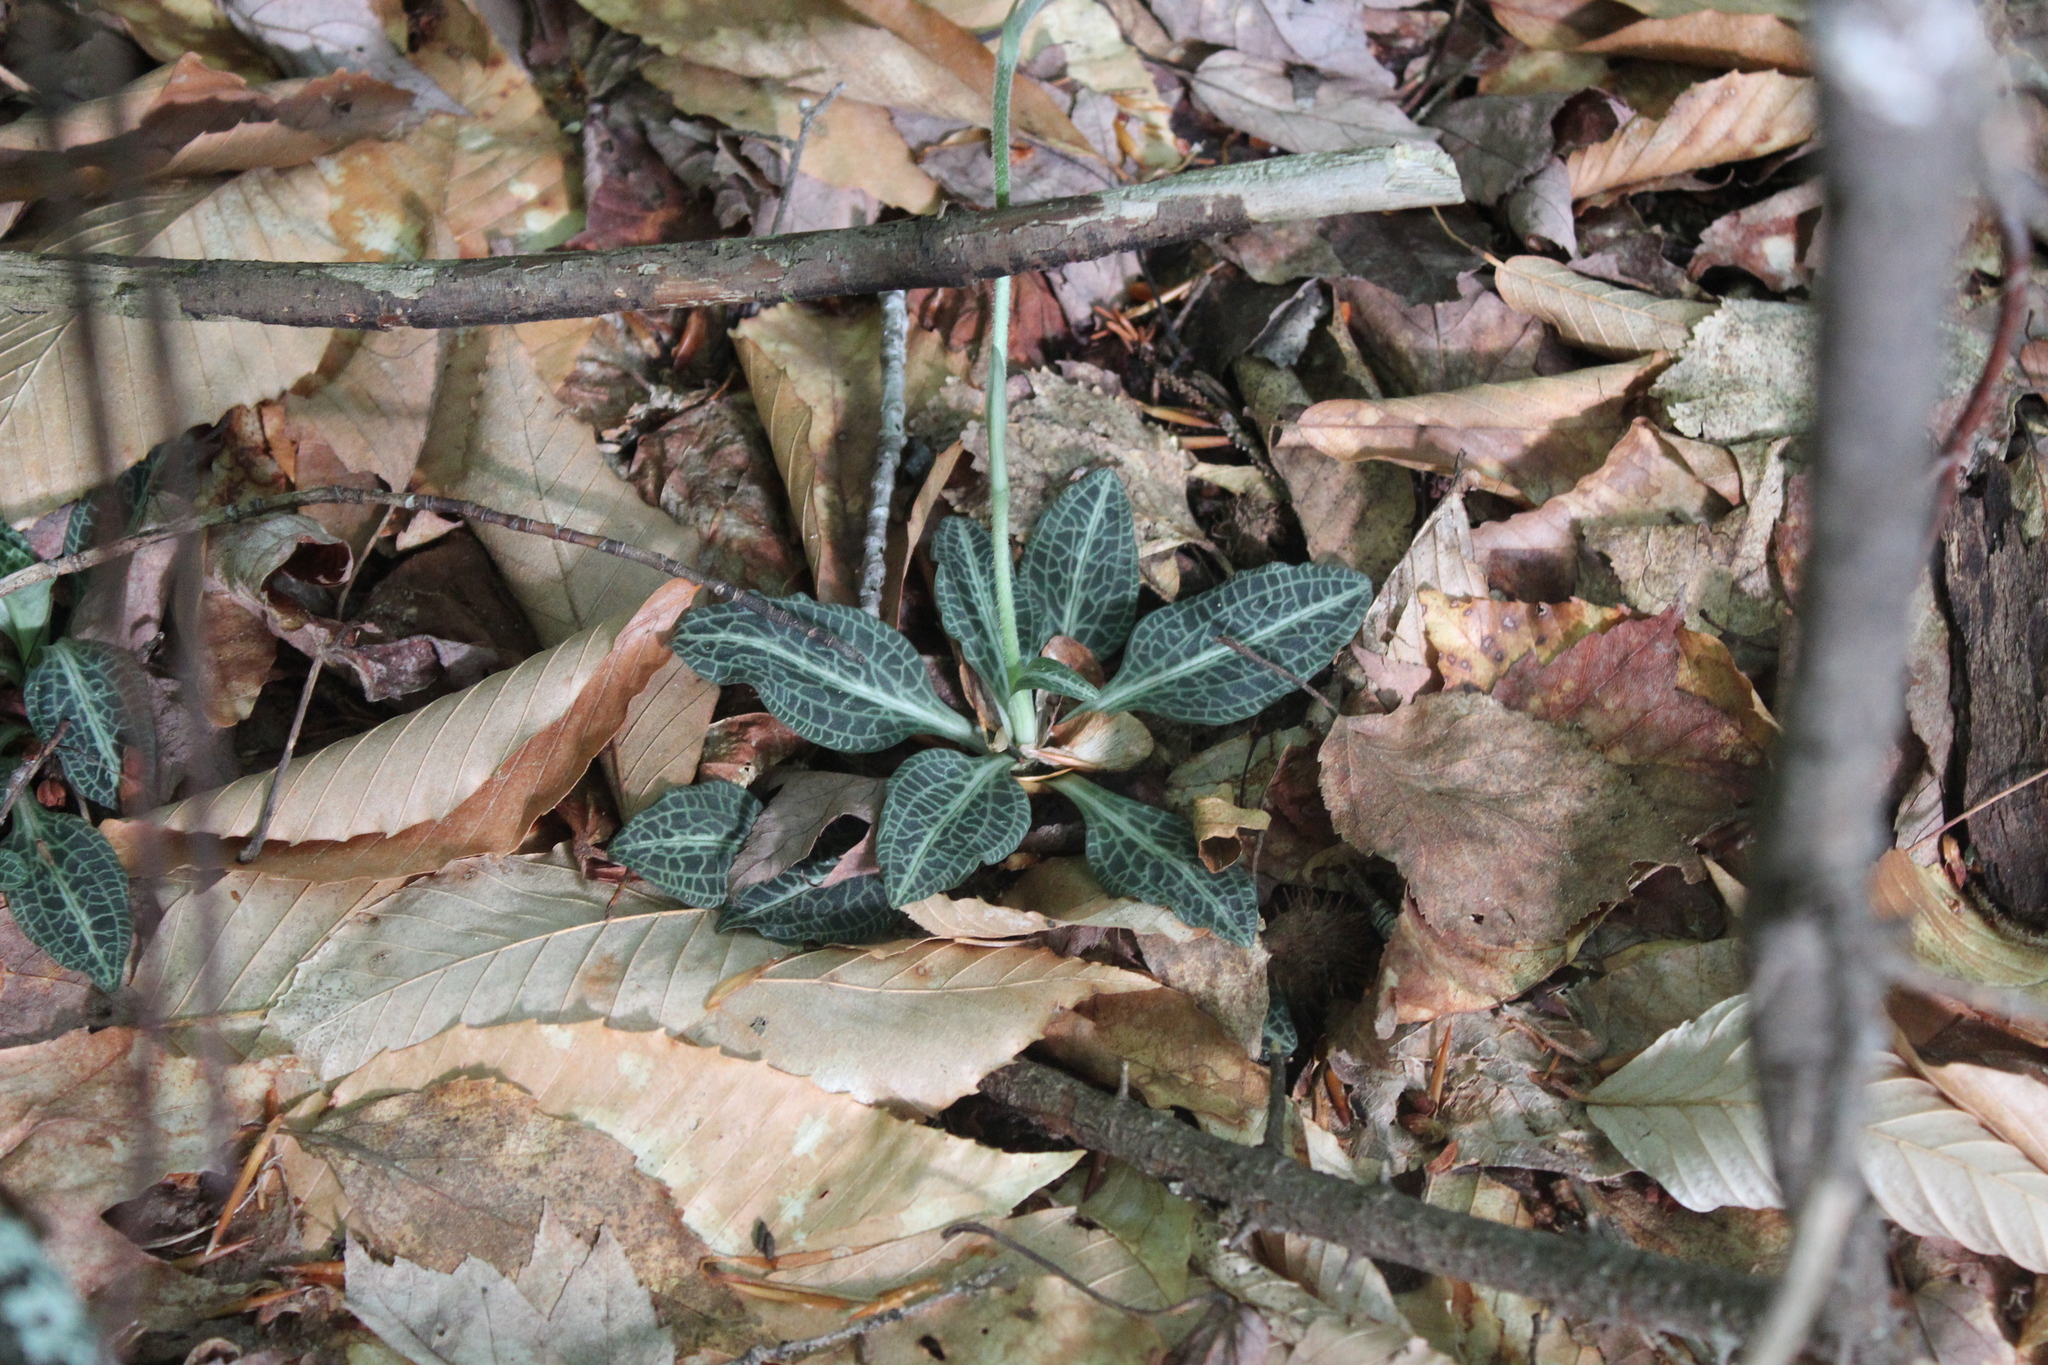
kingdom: Plantae
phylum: Tracheophyta
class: Liliopsida
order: Asparagales
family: Orchidaceae
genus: Goodyera
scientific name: Goodyera pubescens
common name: Downy rattlesnake-plantain
